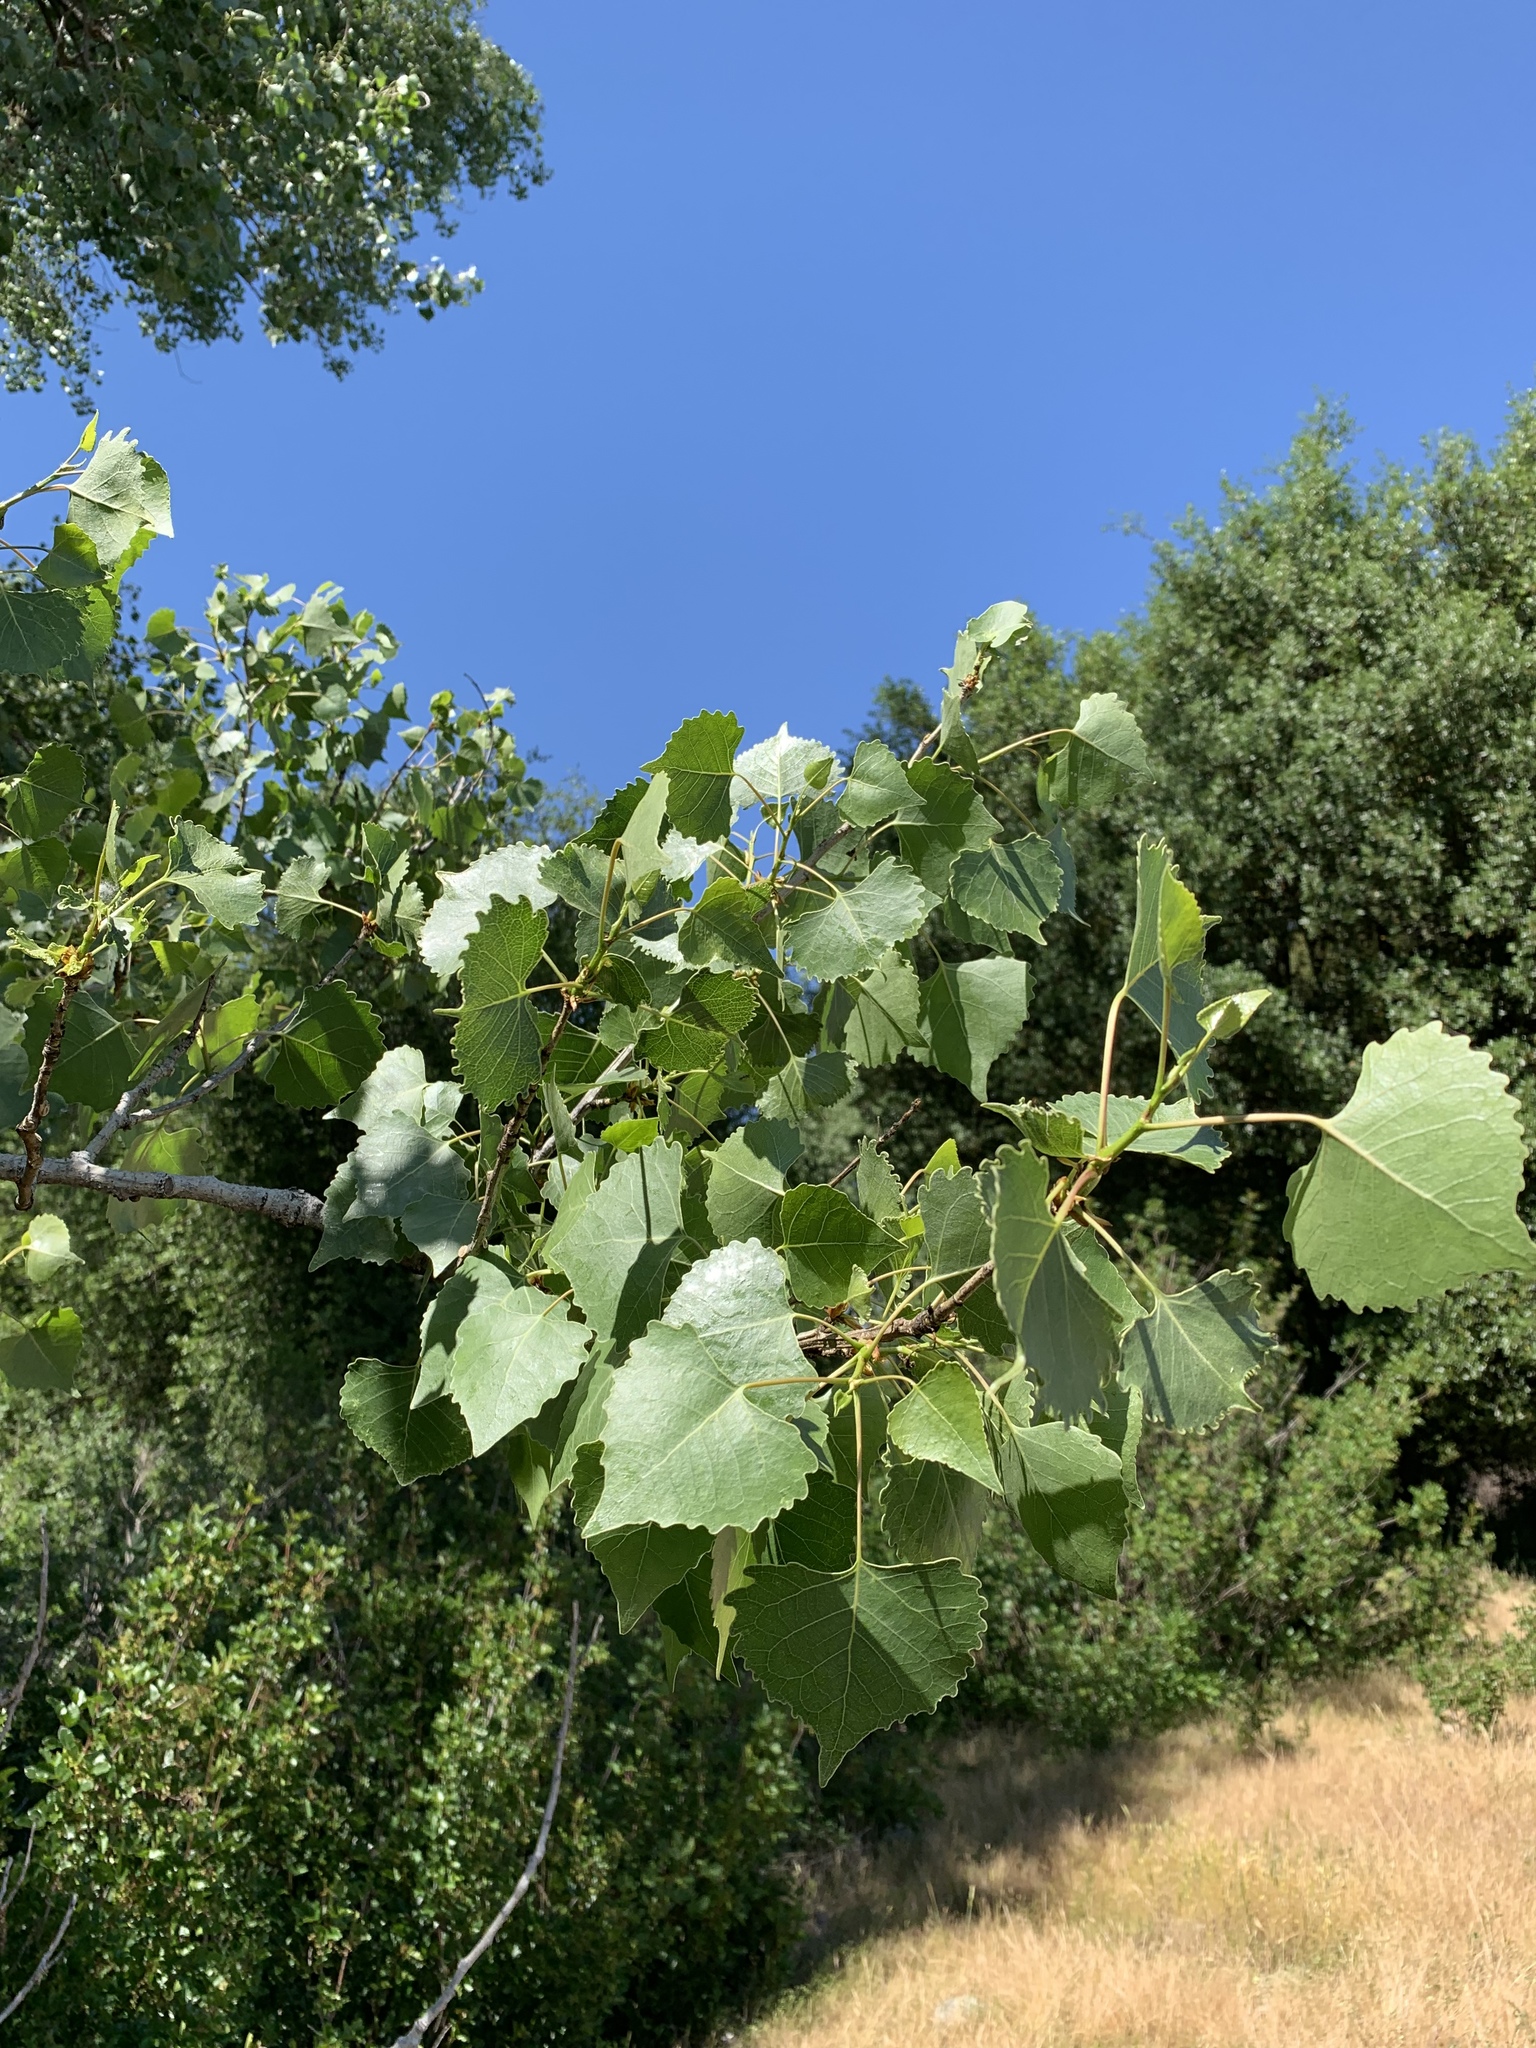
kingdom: Plantae
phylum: Tracheophyta
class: Magnoliopsida
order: Malpighiales
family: Salicaceae
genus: Populus
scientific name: Populus fremontii
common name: Fremont's cottonwood
